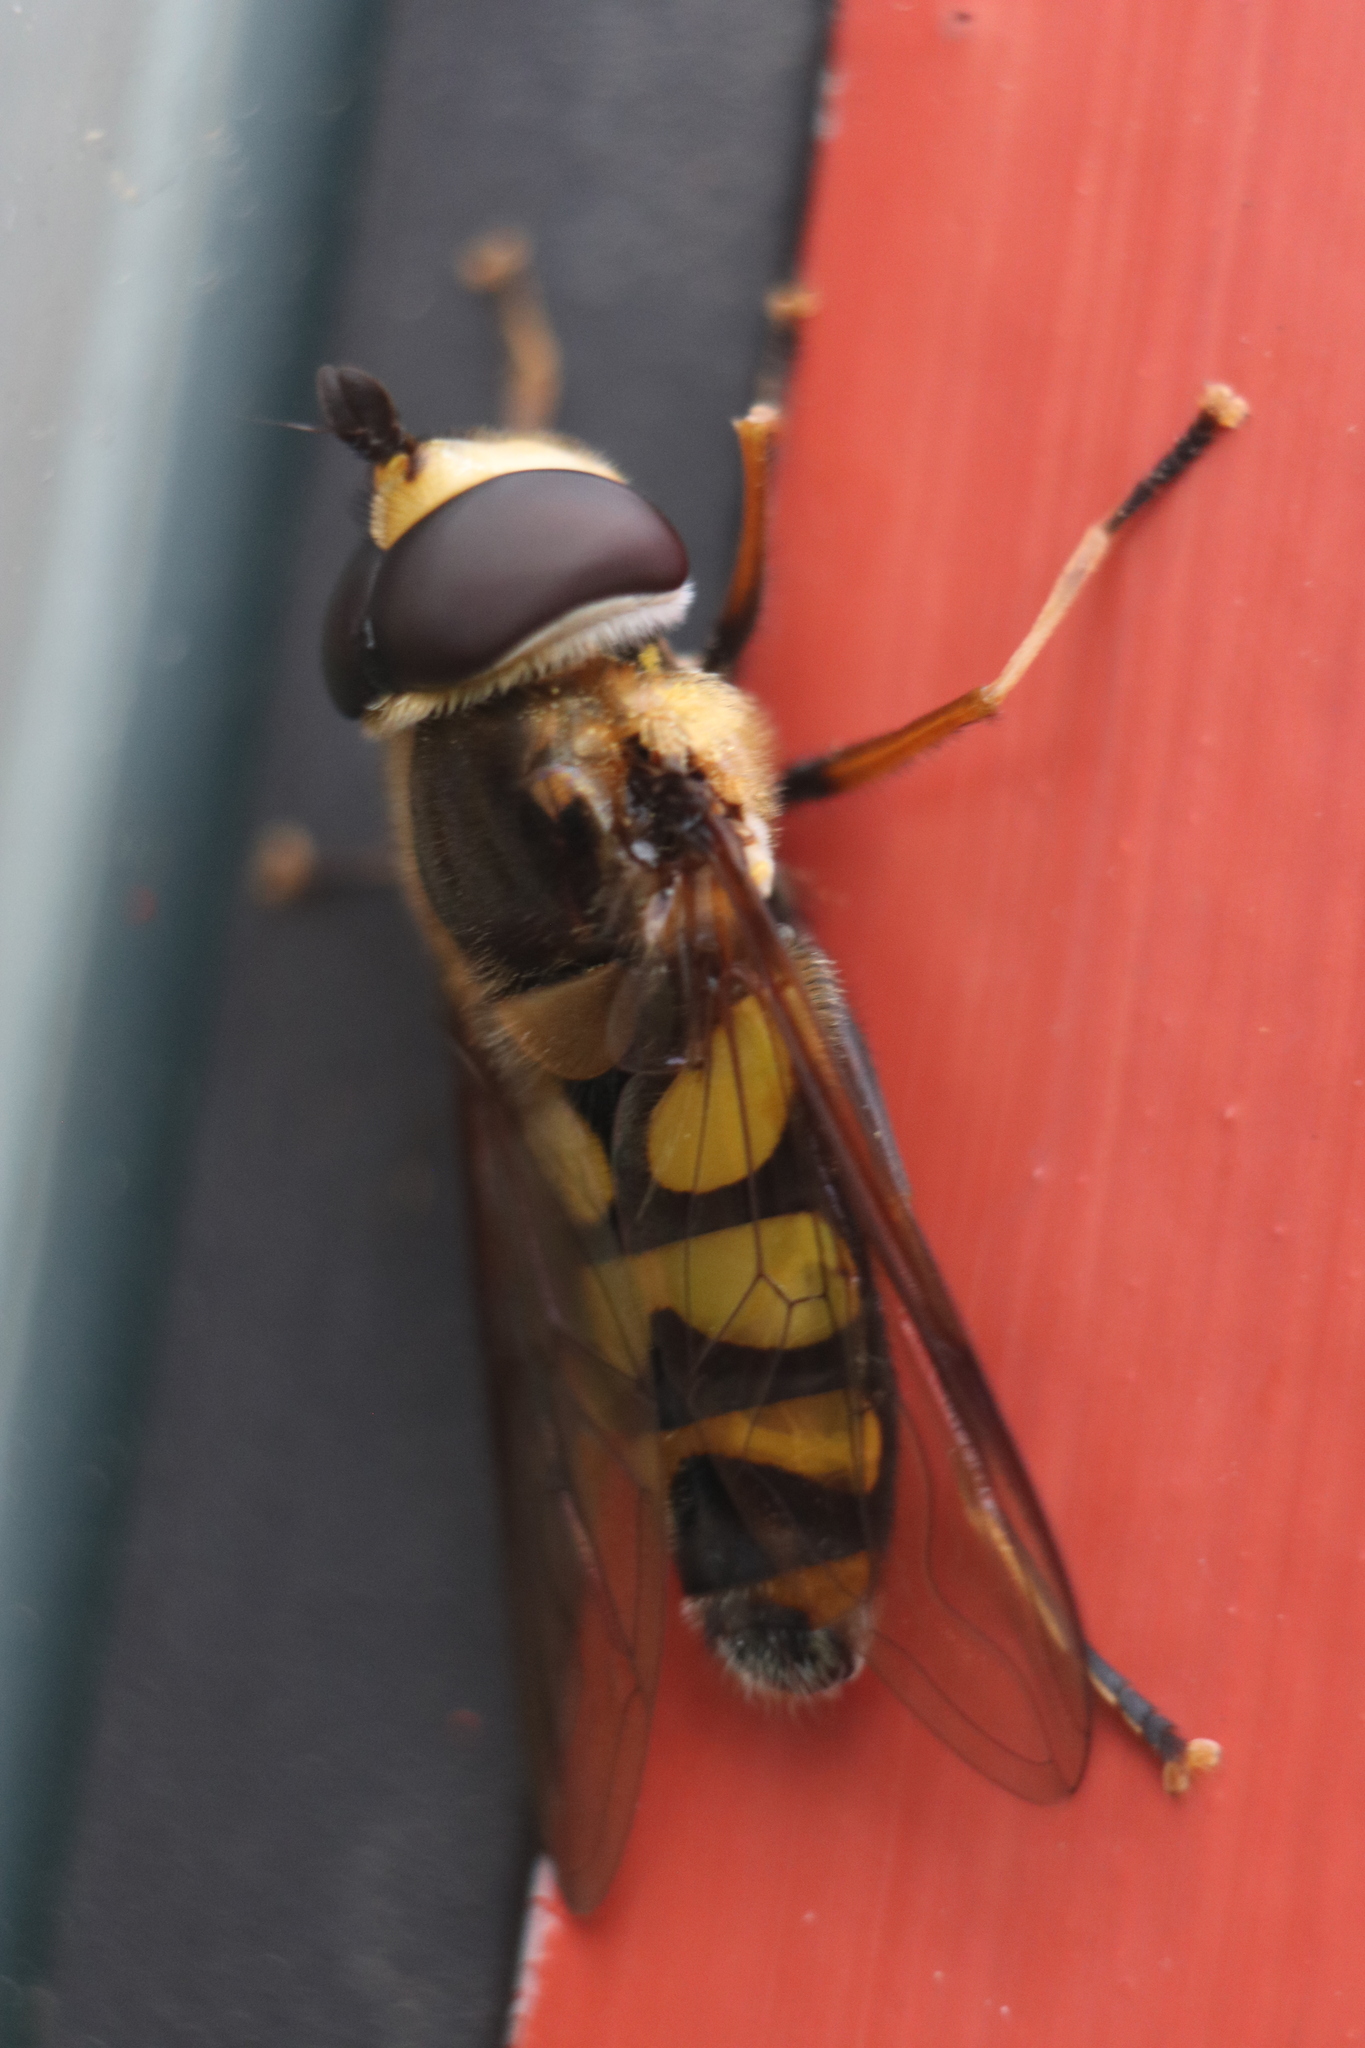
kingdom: Animalia
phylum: Arthropoda
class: Insecta
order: Diptera
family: Syrphidae
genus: Didea
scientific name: Didea fuscipes
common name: Undivided lucent
